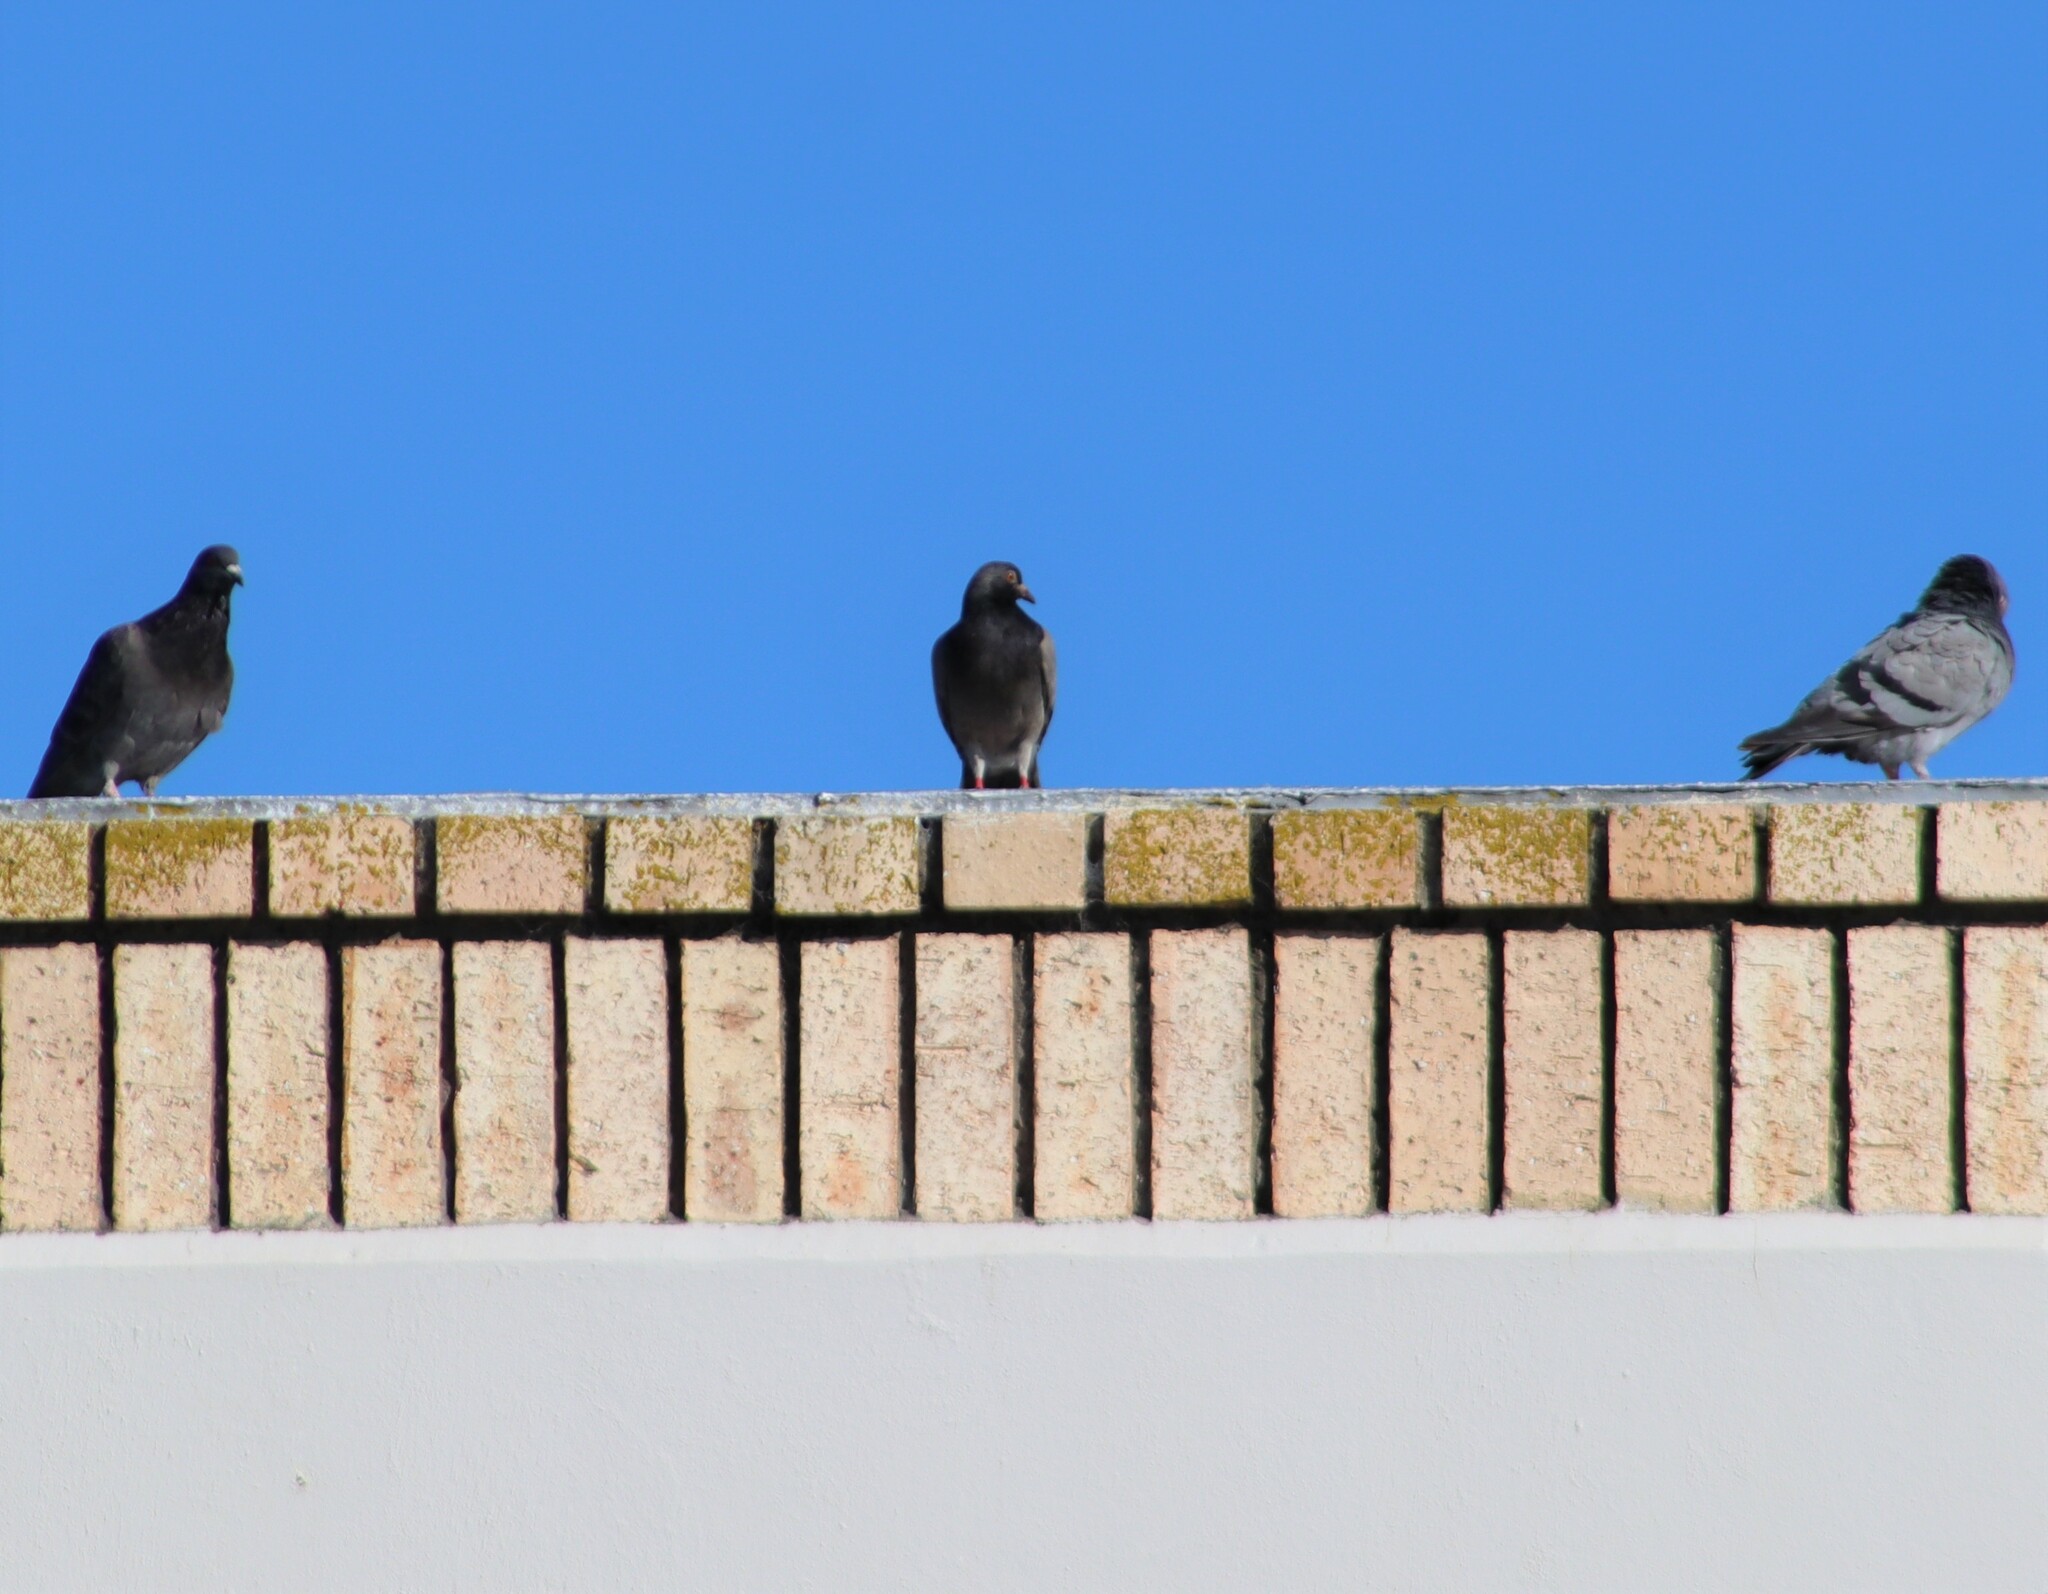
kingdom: Animalia
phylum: Chordata
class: Aves
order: Columbiformes
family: Columbidae
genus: Columba
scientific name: Columba livia
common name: Rock pigeon
